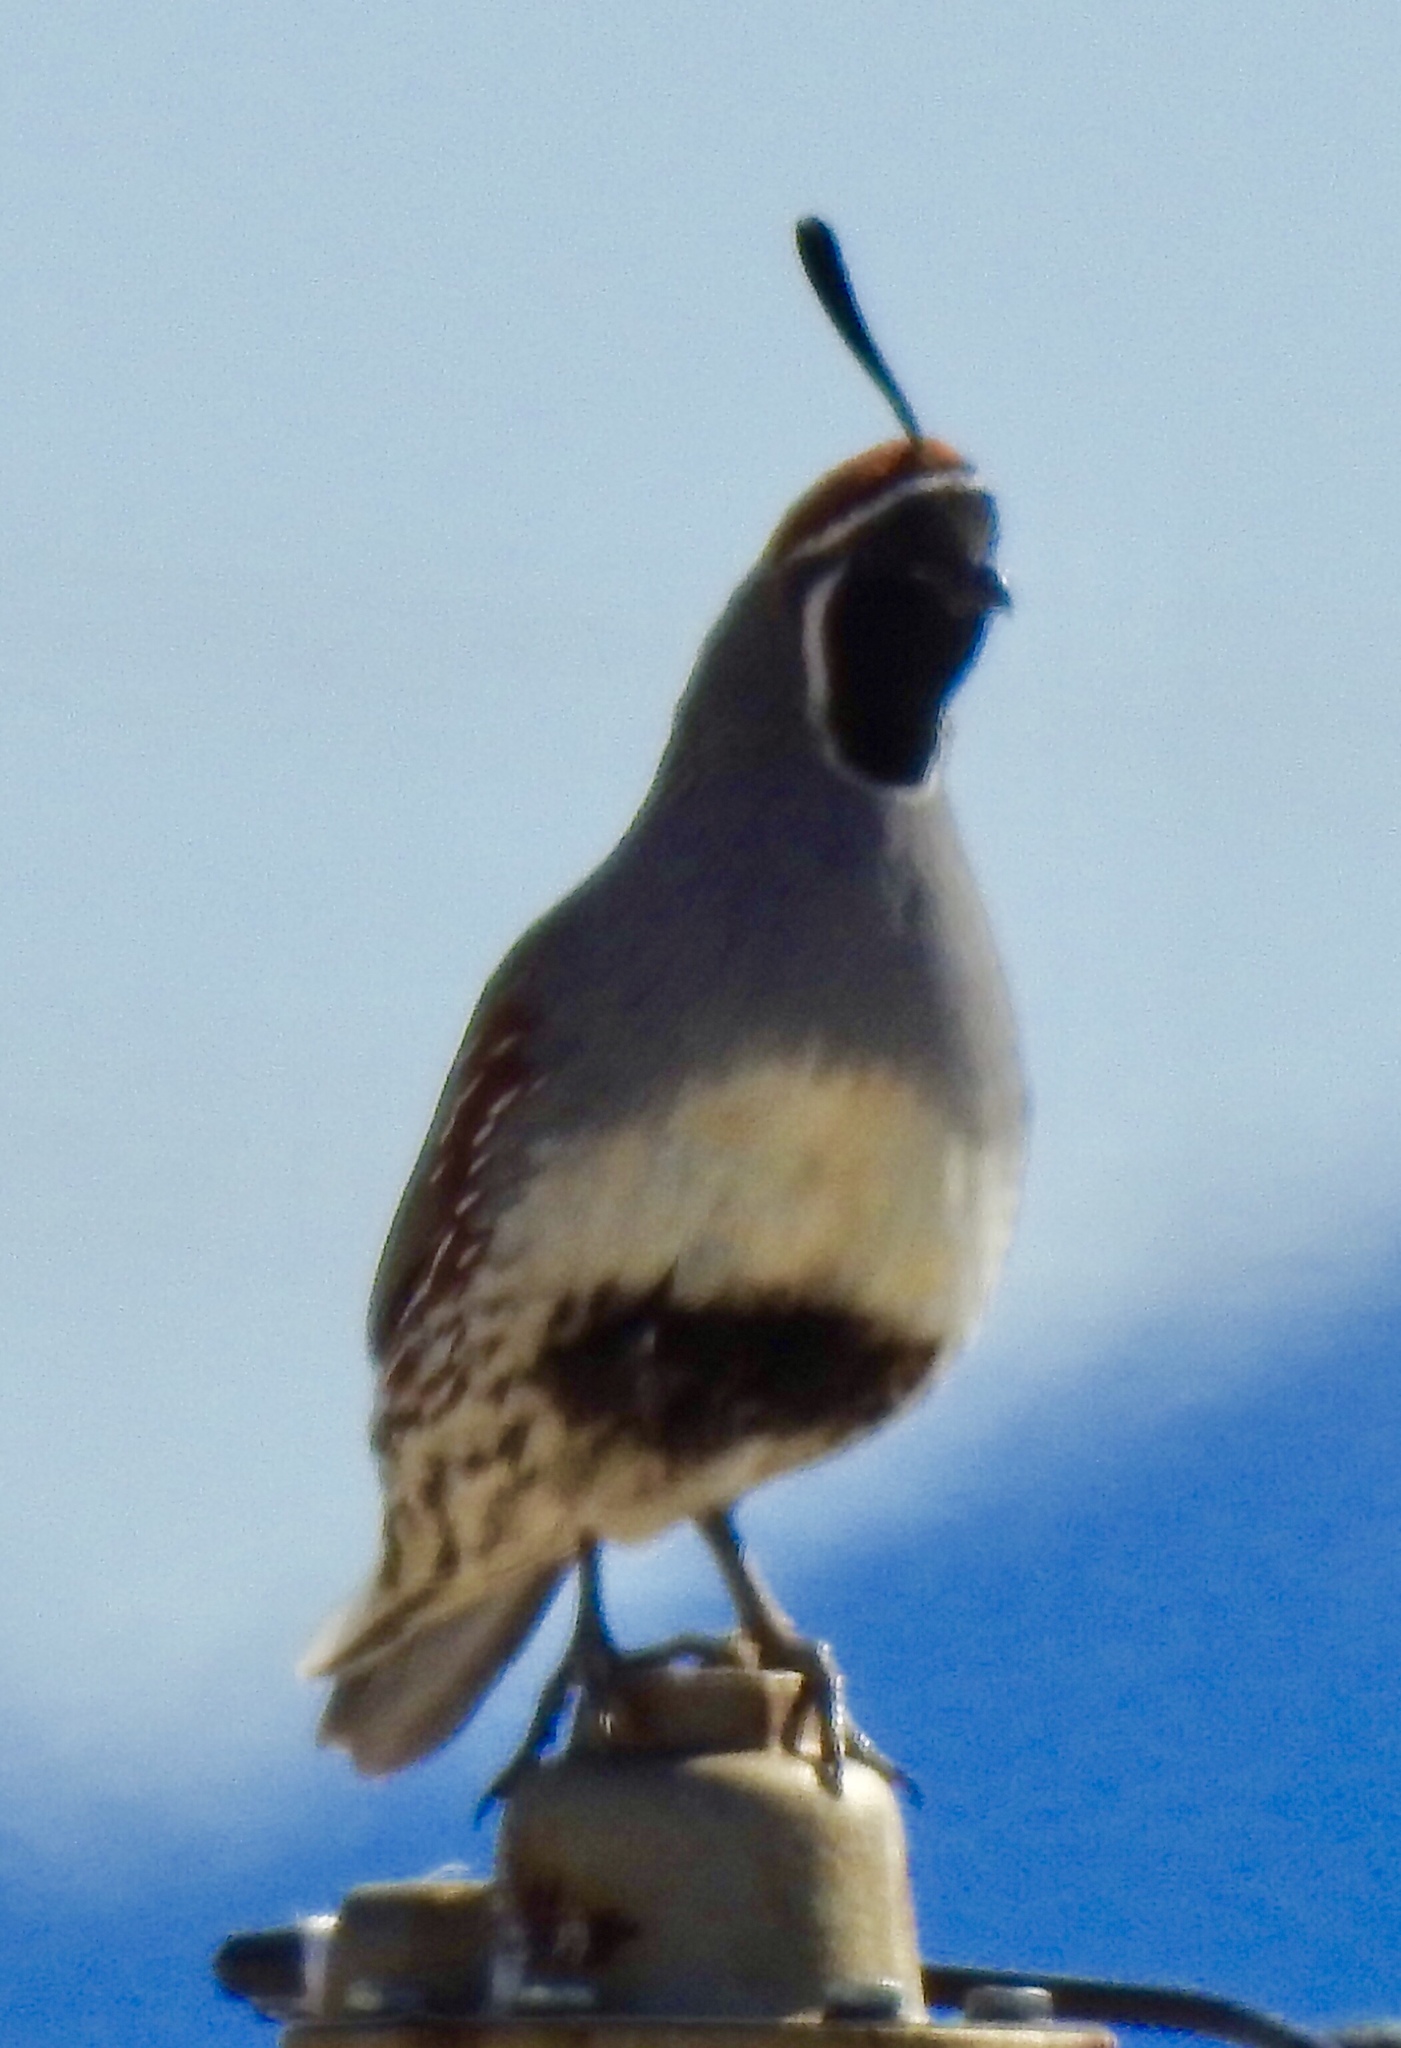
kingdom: Animalia
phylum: Chordata
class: Aves
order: Galliformes
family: Odontophoridae
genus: Callipepla
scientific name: Callipepla gambelii
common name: Gambel's quail
